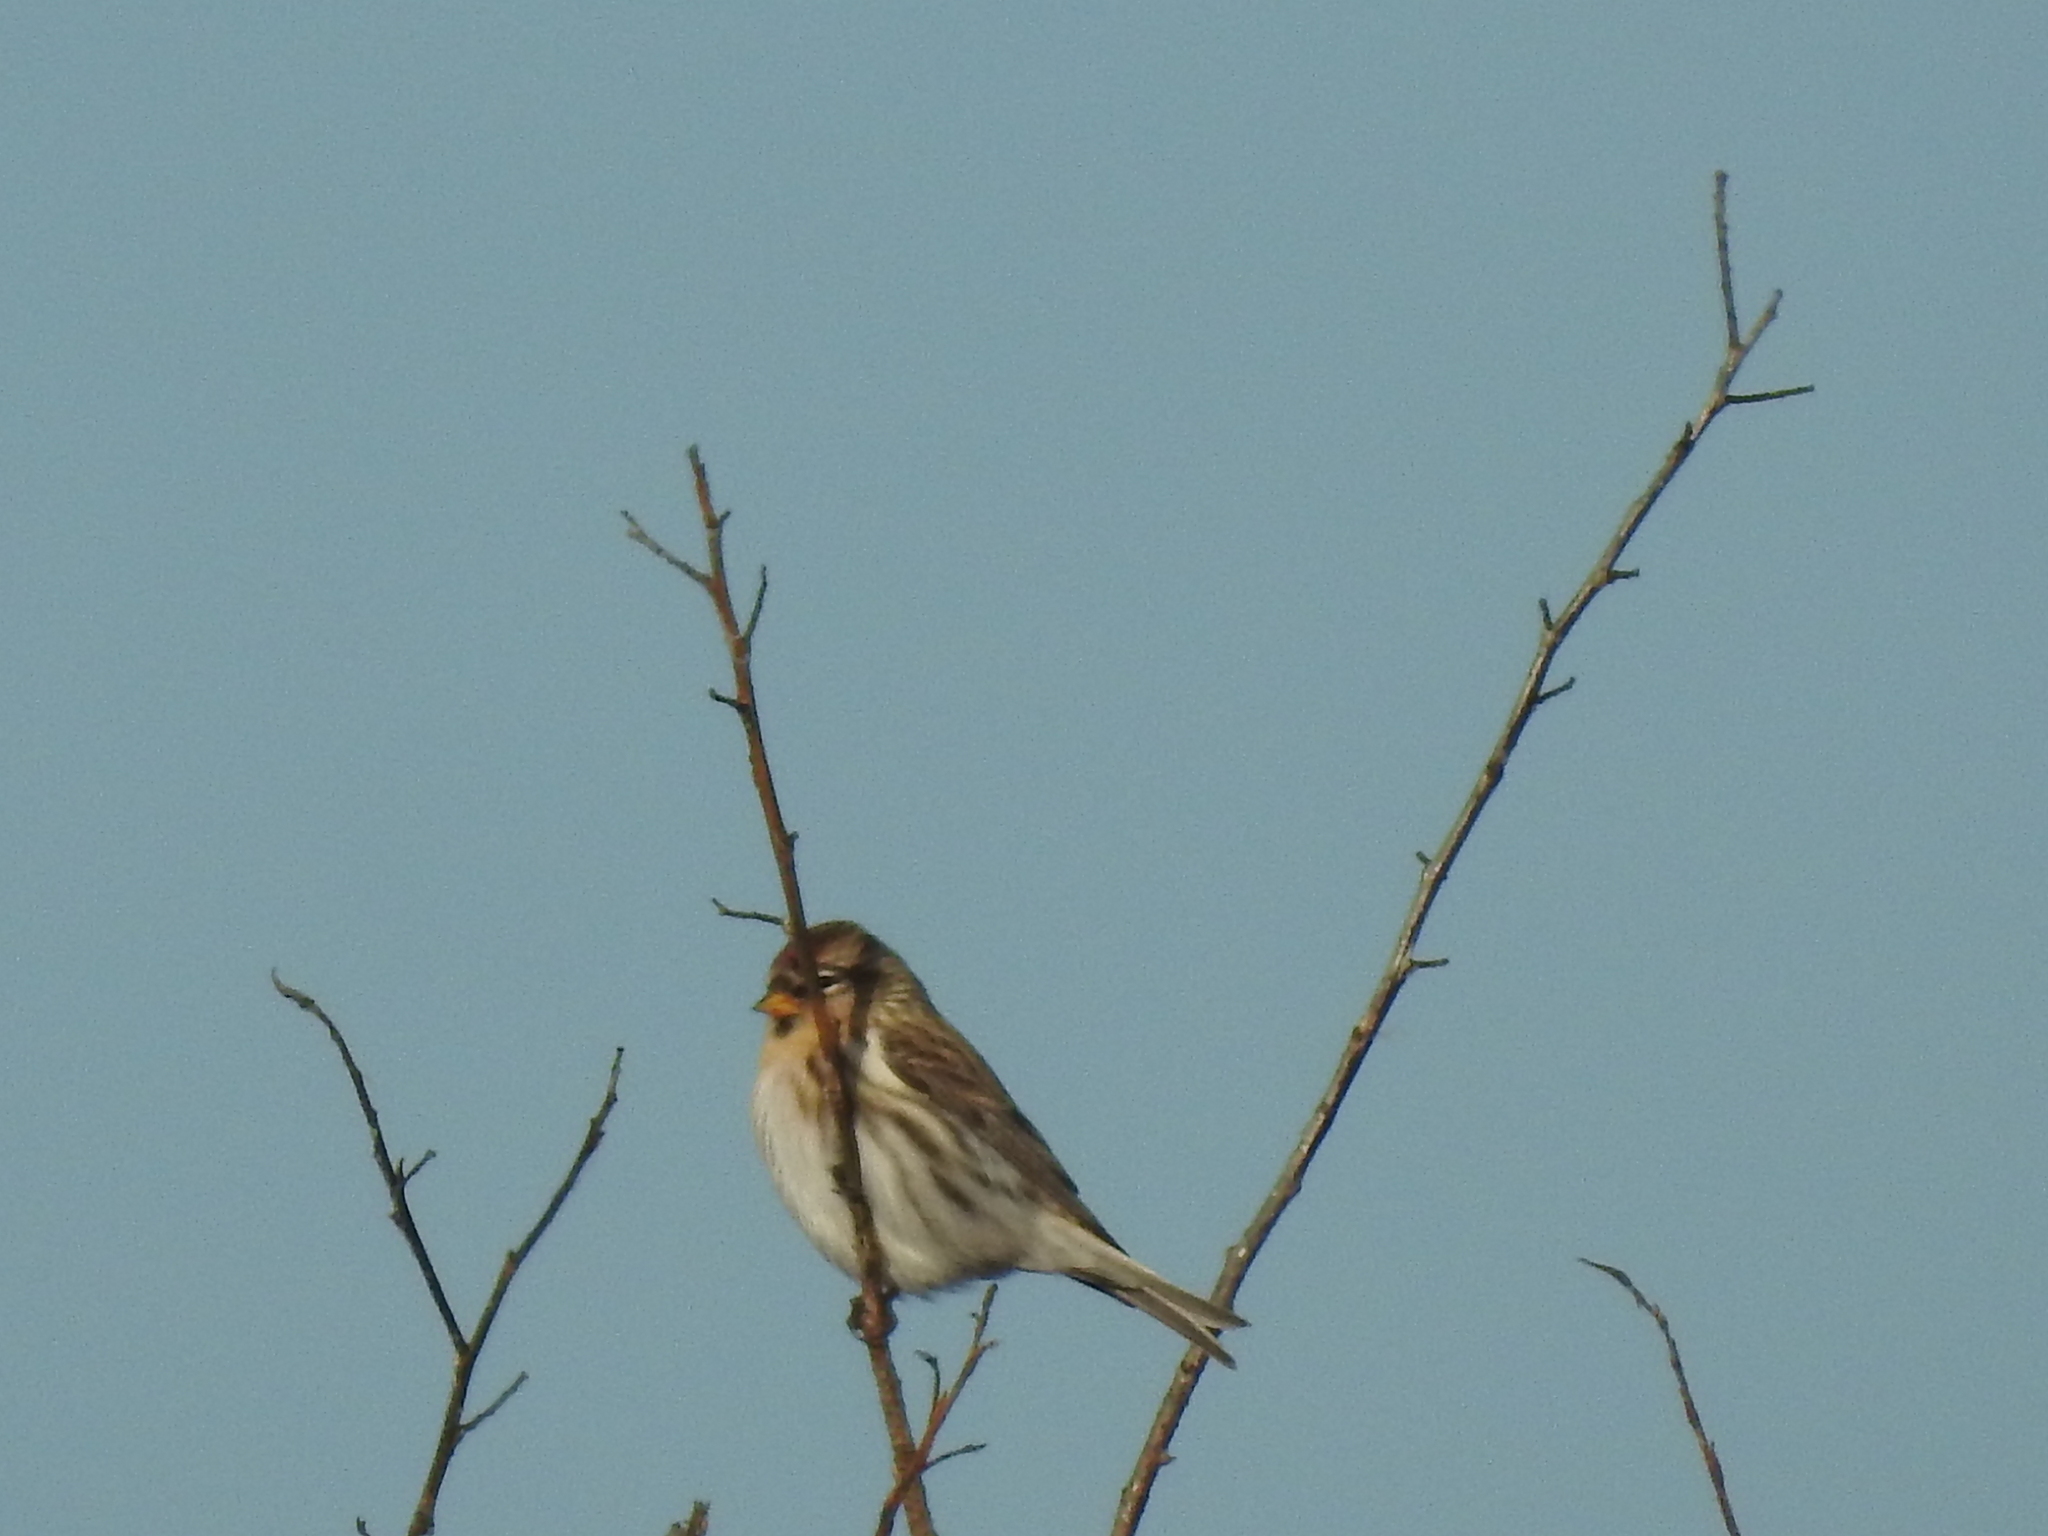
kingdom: Animalia
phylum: Chordata
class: Aves
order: Passeriformes
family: Fringillidae
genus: Acanthis
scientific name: Acanthis flammea
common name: Common redpoll
